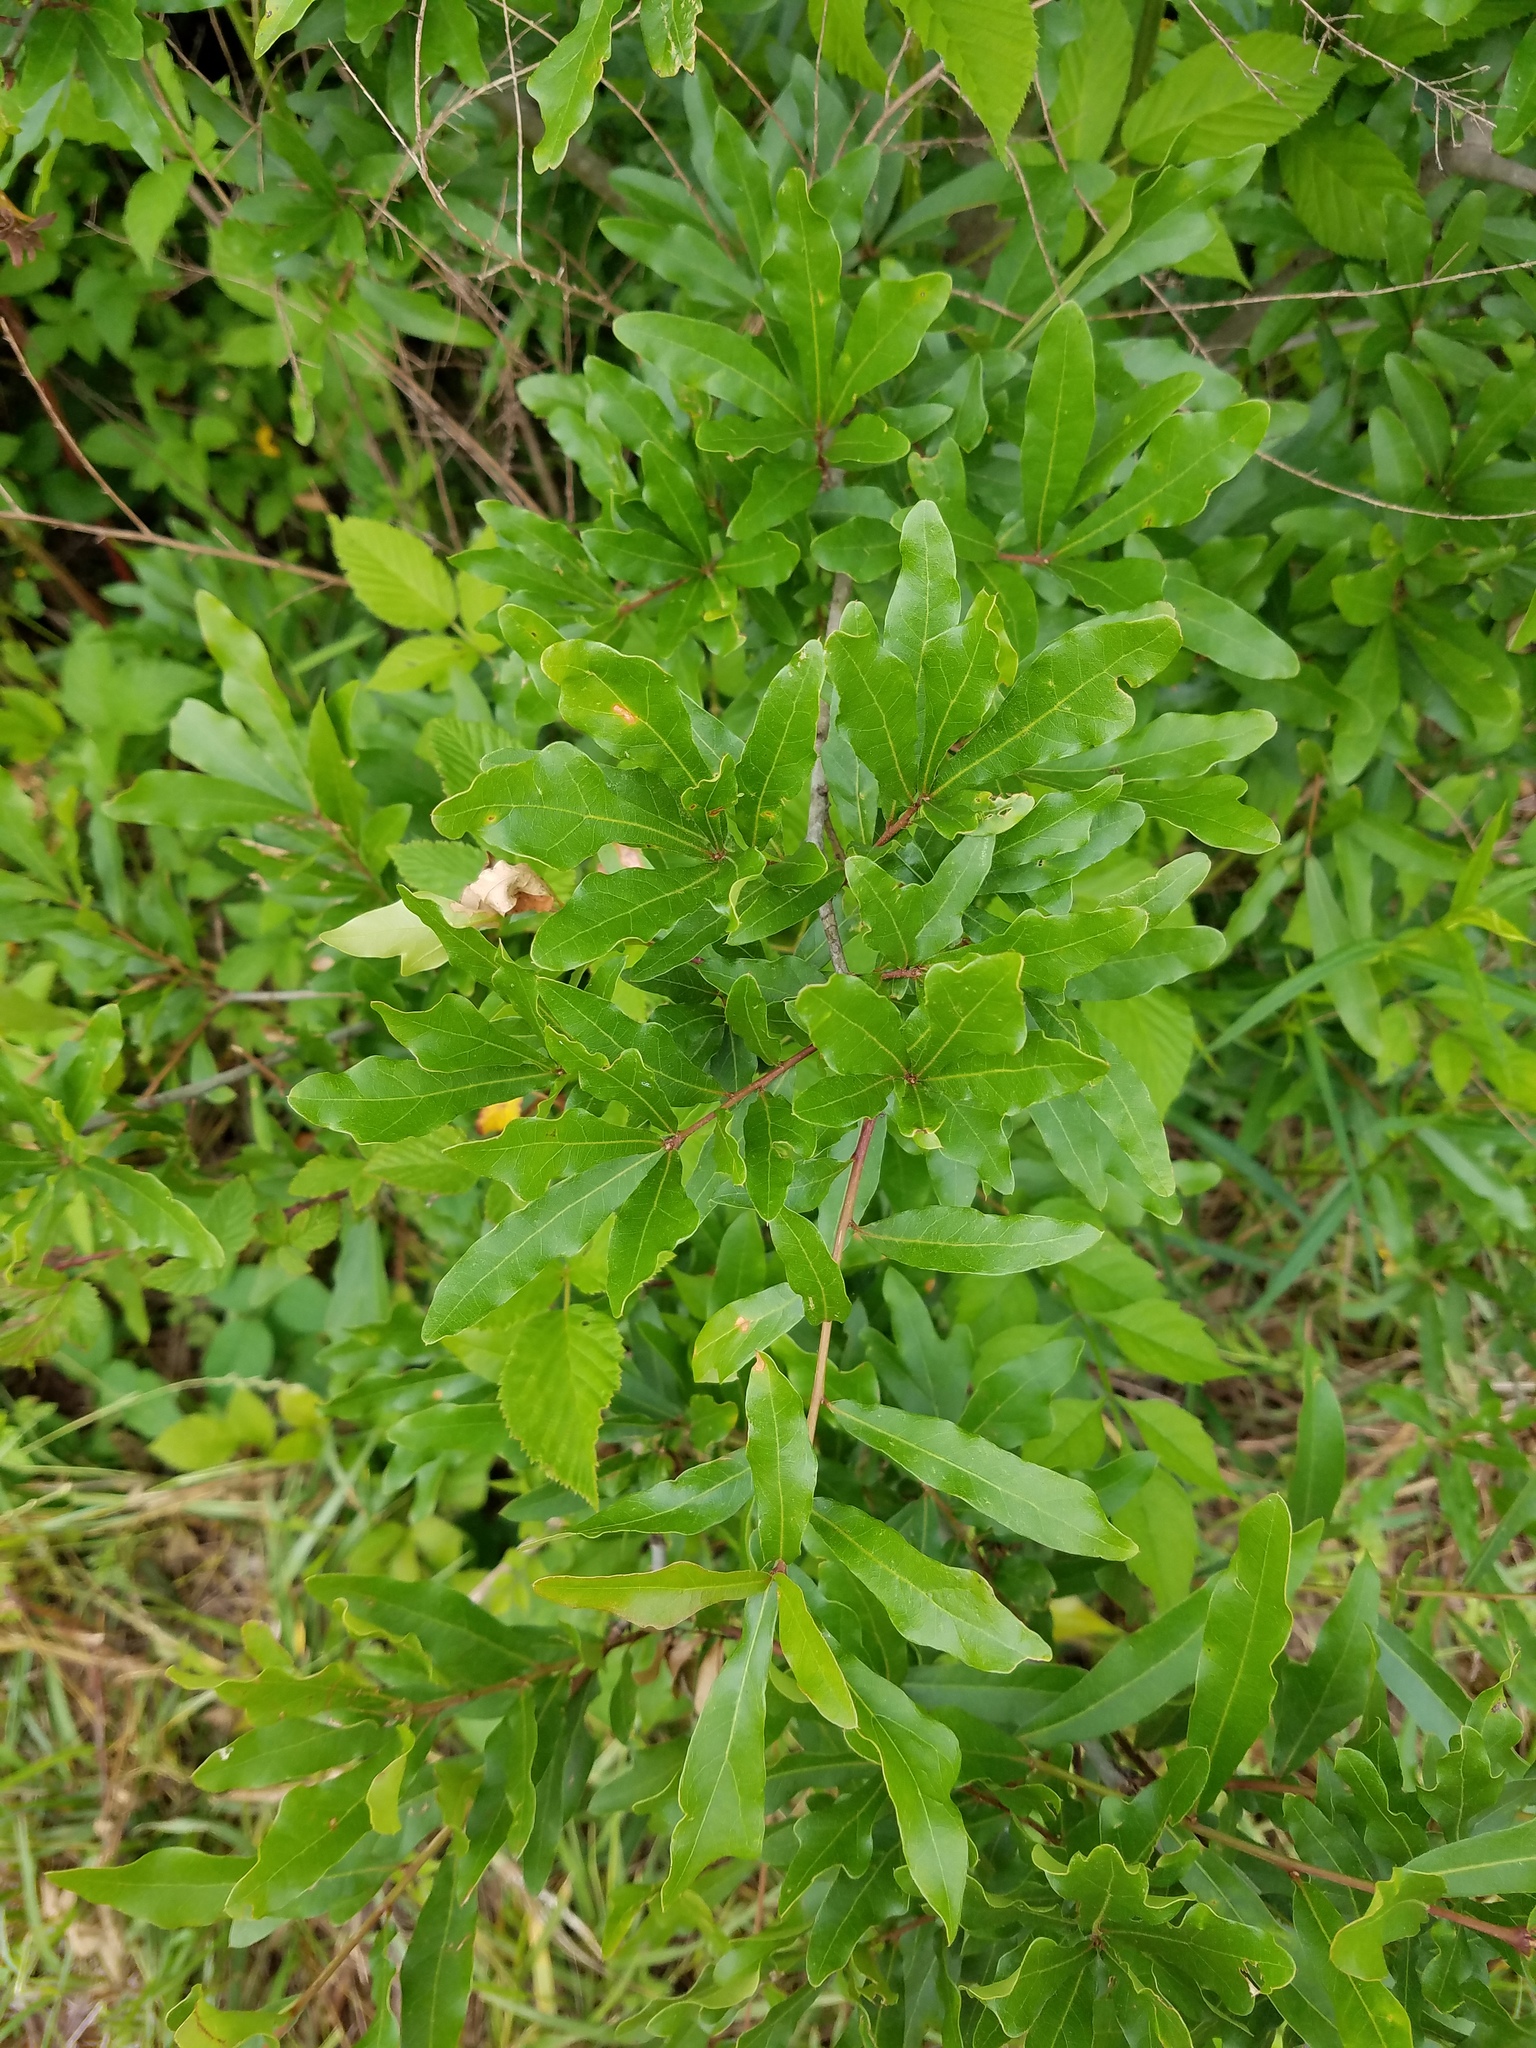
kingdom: Plantae
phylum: Tracheophyta
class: Magnoliopsida
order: Fagales
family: Fagaceae
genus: Quercus
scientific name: Quercus nigra
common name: Water oak
